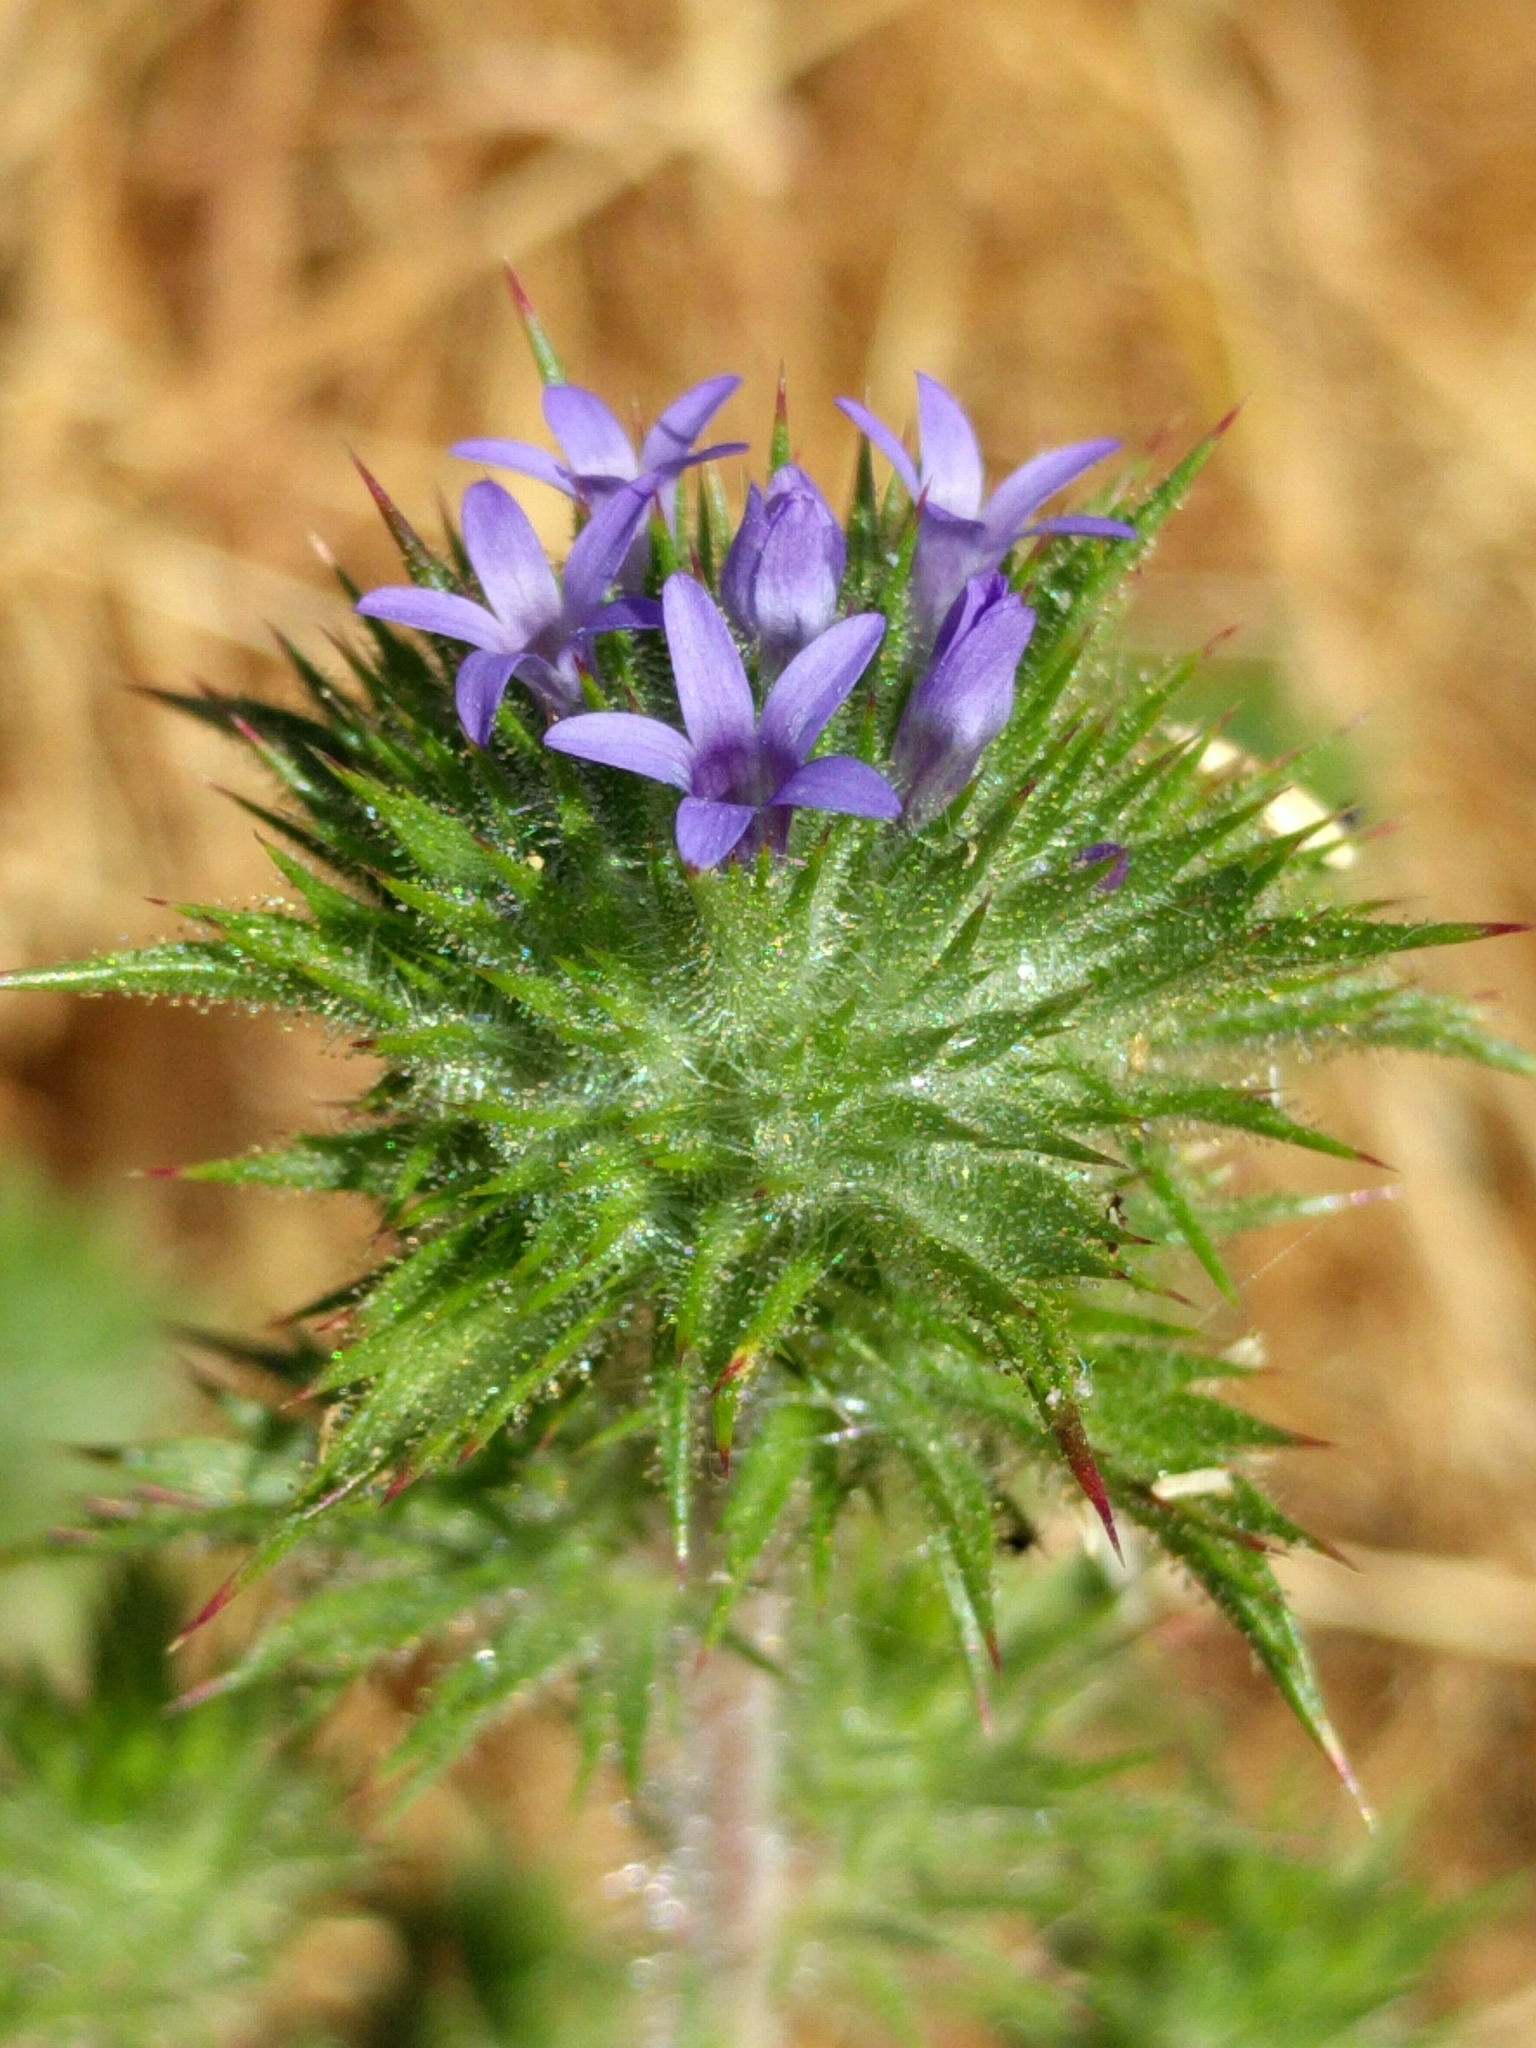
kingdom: Plantae
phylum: Tracheophyta
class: Magnoliopsida
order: Ericales
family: Polemoniaceae
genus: Navarretia
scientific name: Navarretia squarrosa
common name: Skunkweed
